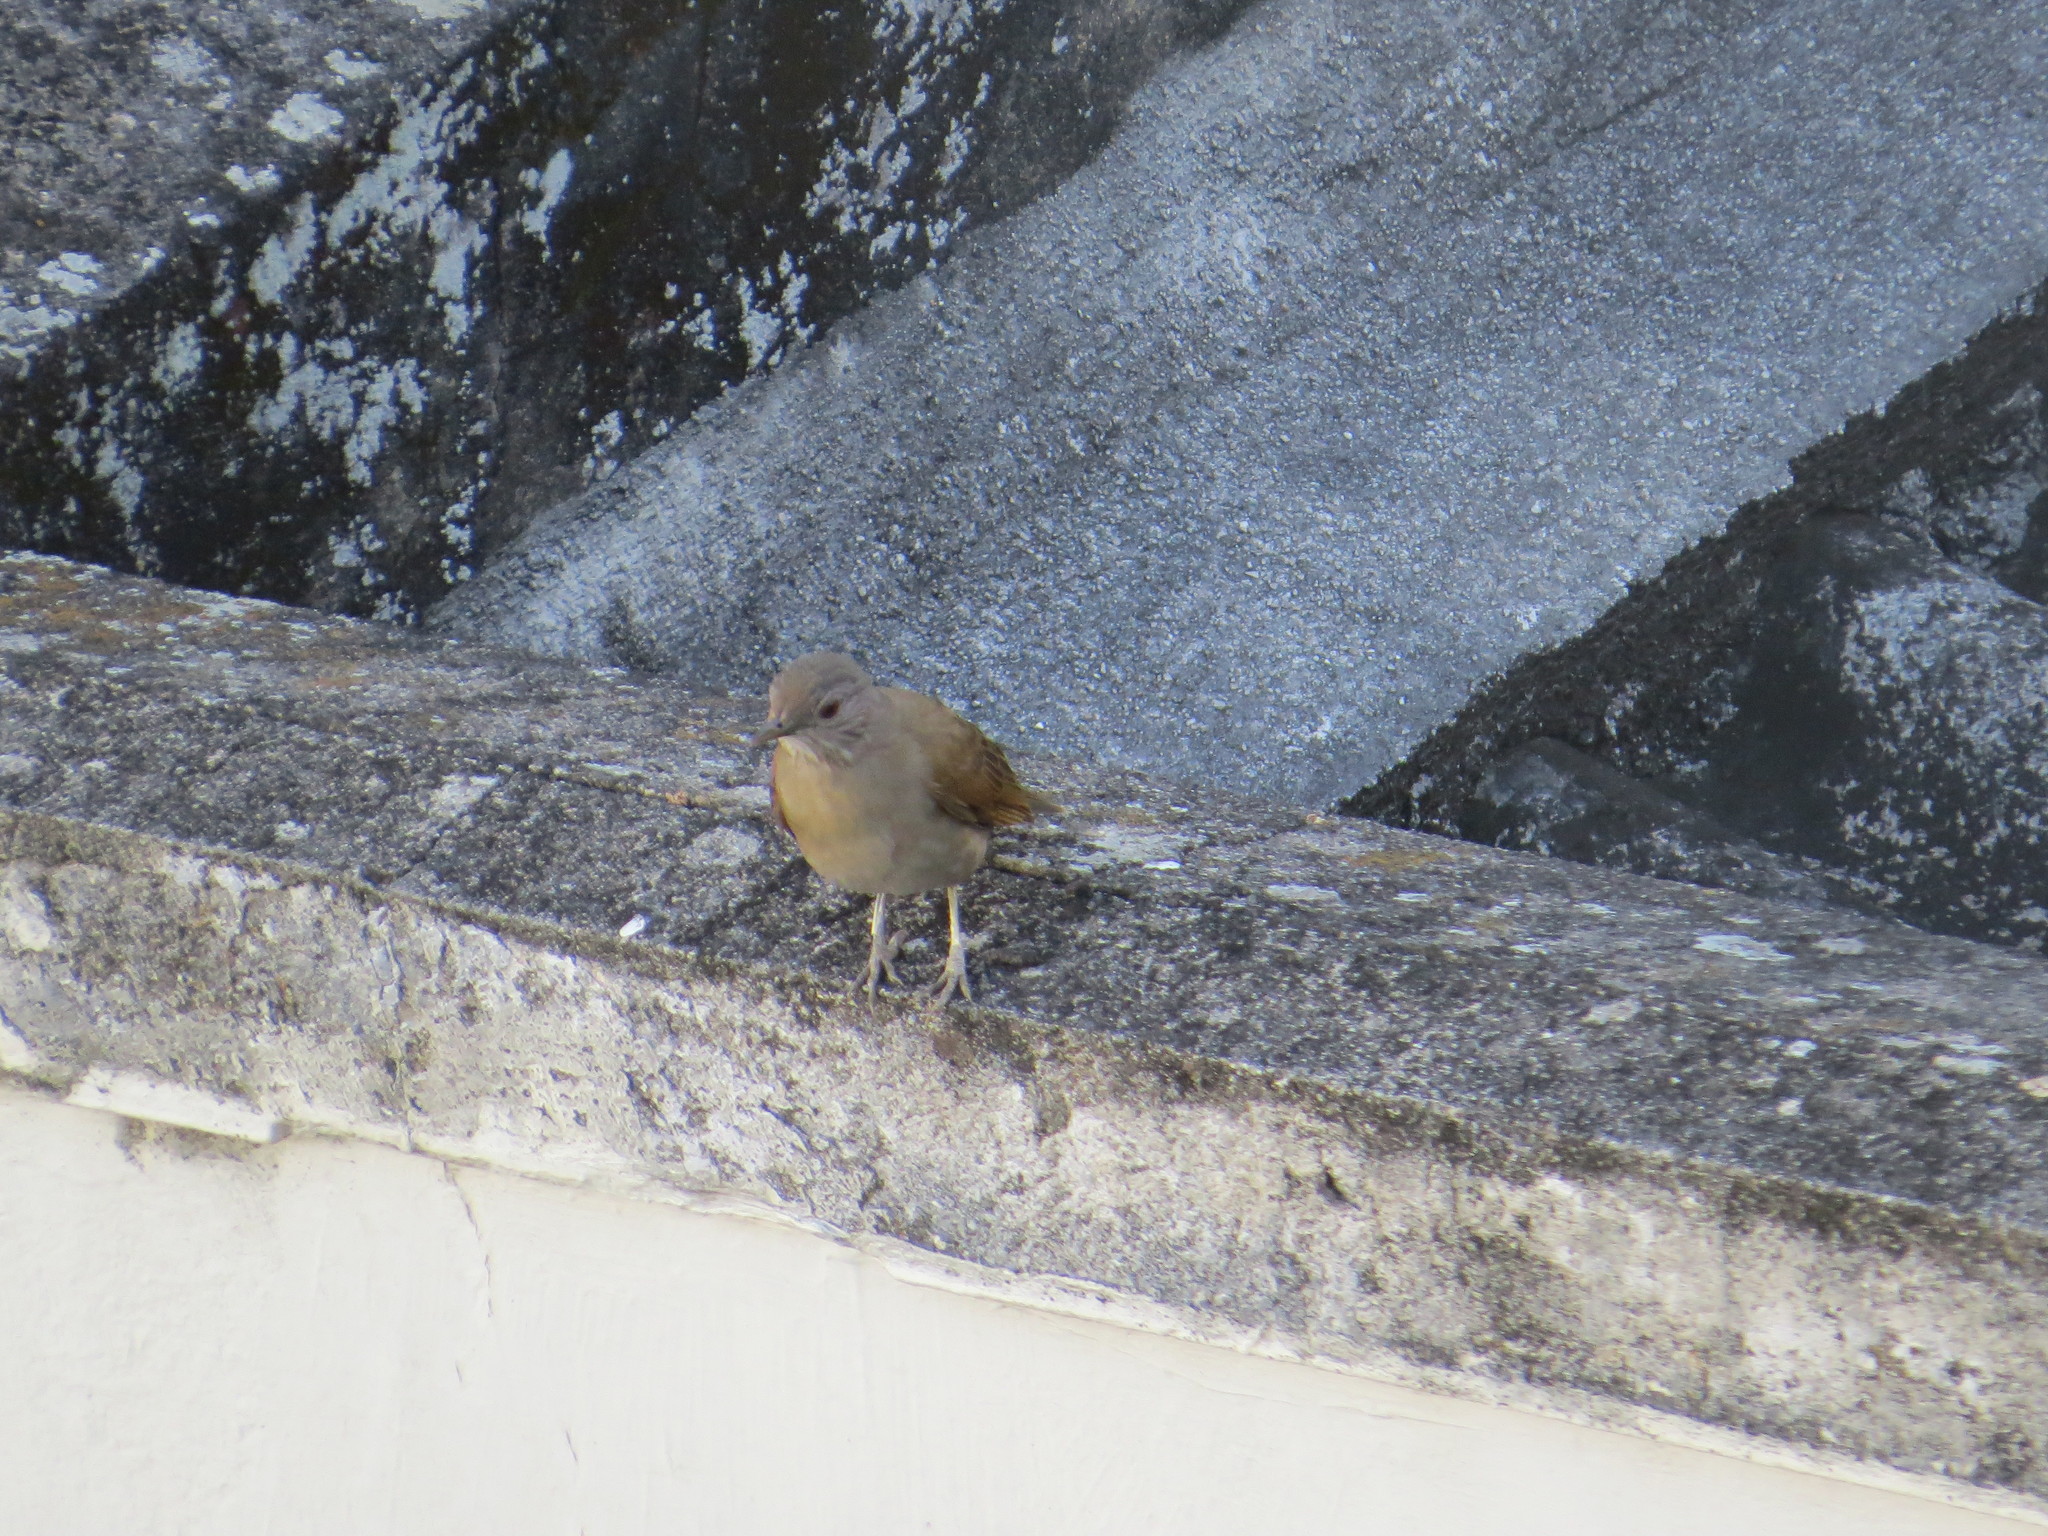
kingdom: Animalia
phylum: Chordata
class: Aves
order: Passeriformes
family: Turdidae
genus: Turdus
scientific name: Turdus leucomelas
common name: Pale-breasted thrush
